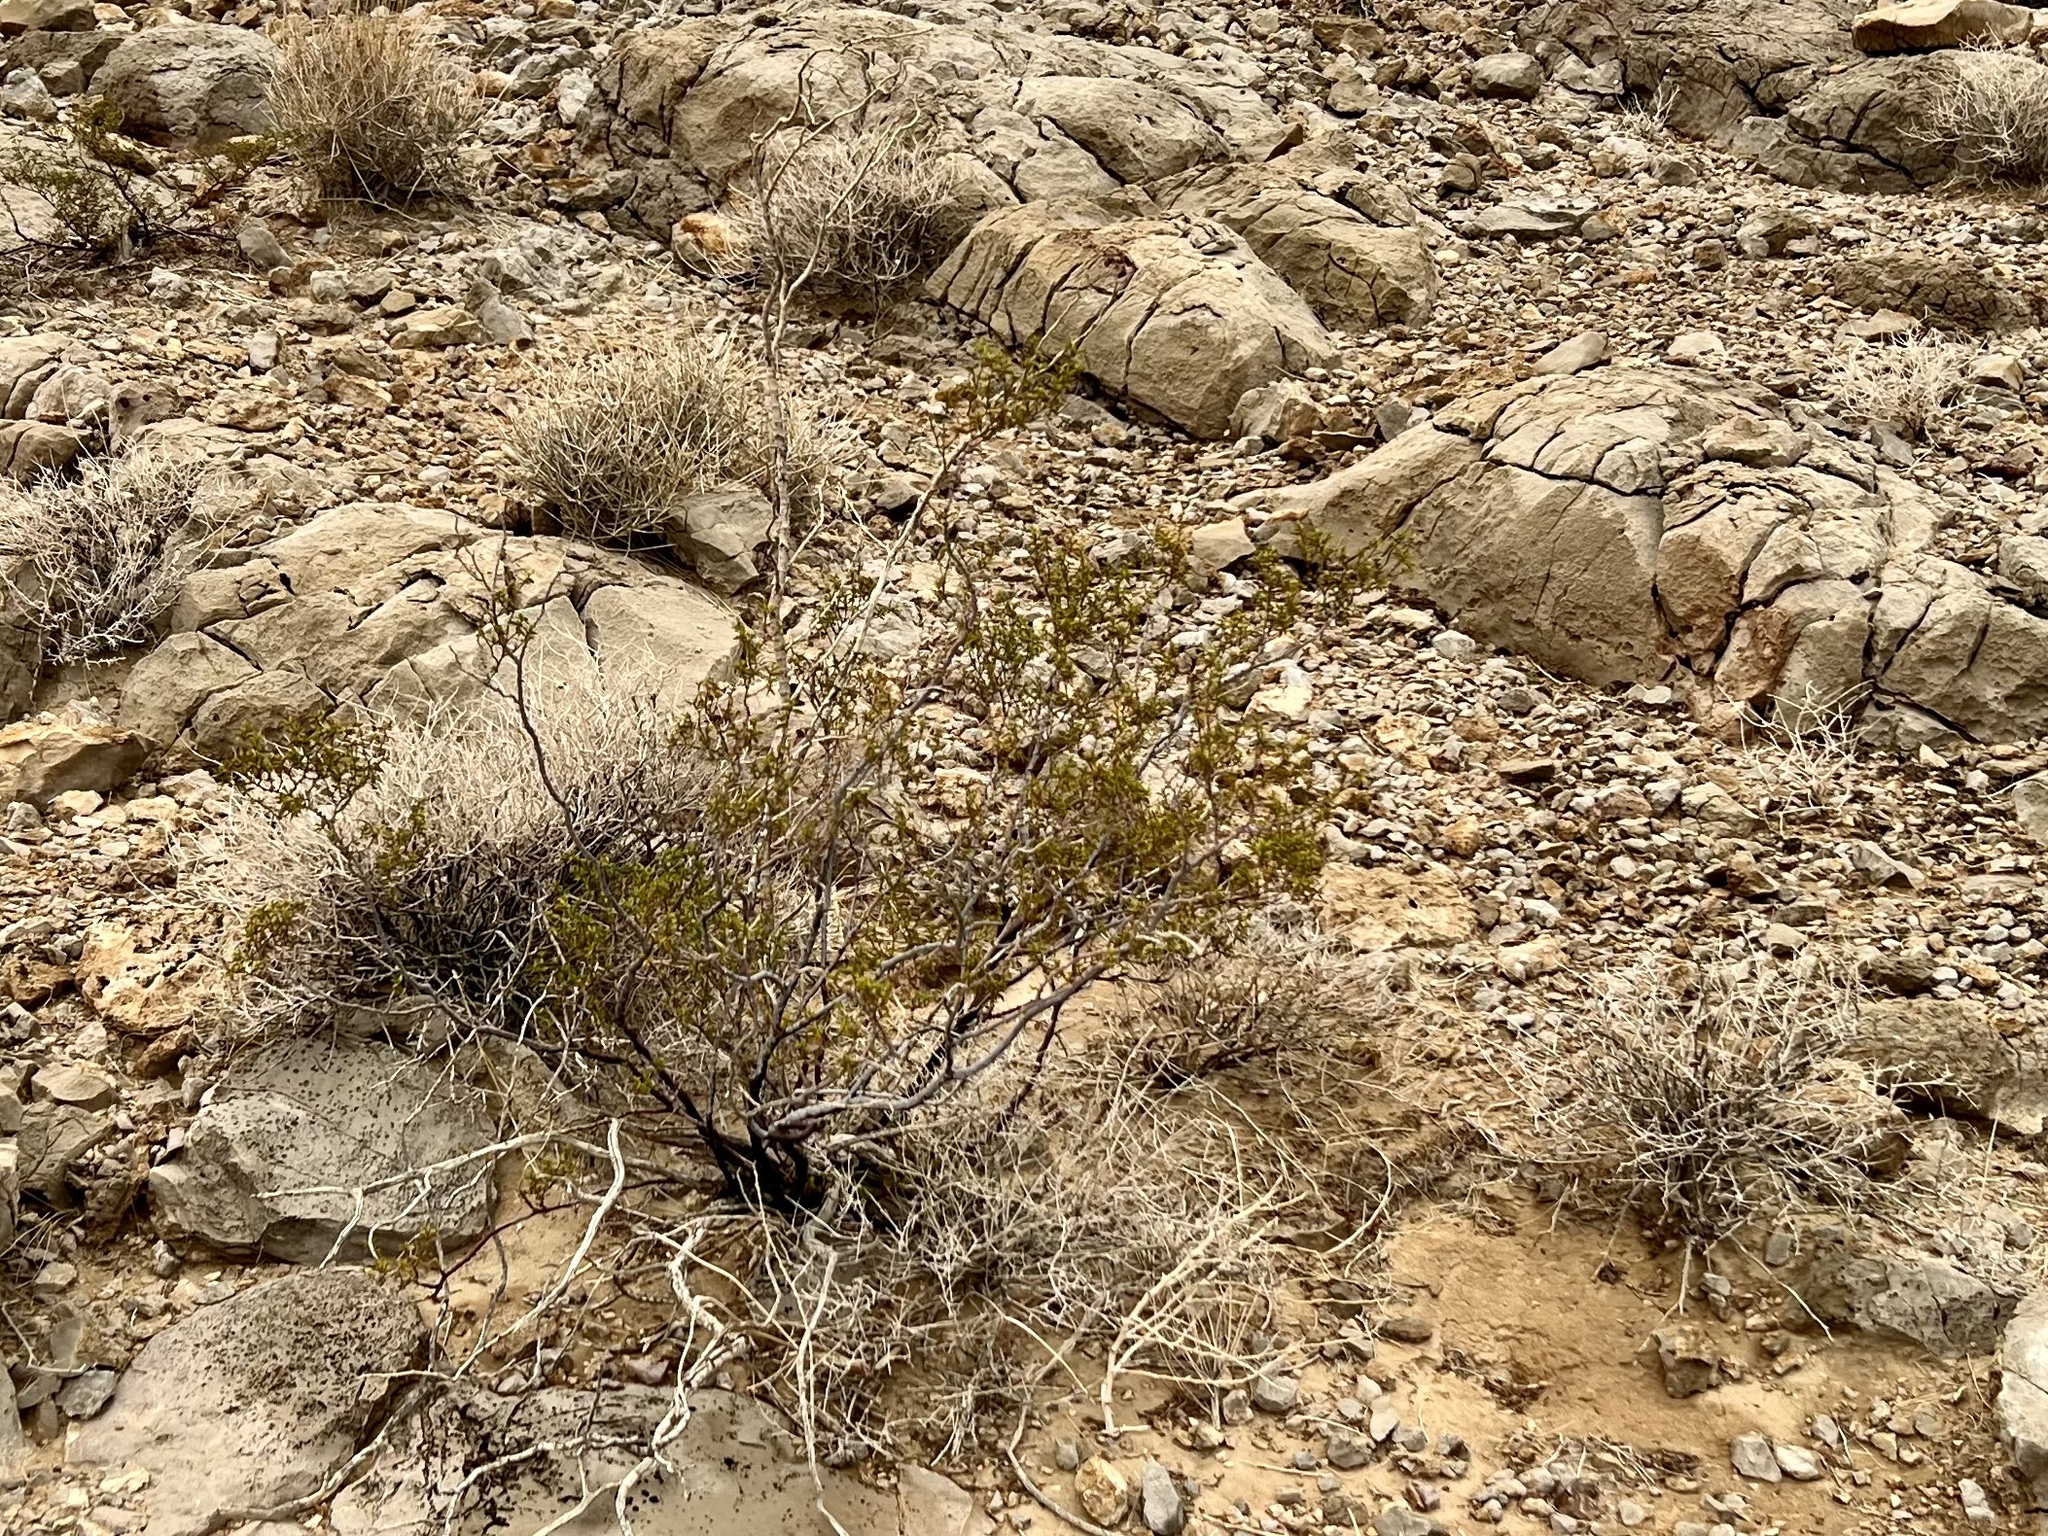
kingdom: Plantae
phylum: Tracheophyta
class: Magnoliopsida
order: Zygophyllales
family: Zygophyllaceae
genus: Larrea
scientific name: Larrea tridentata
